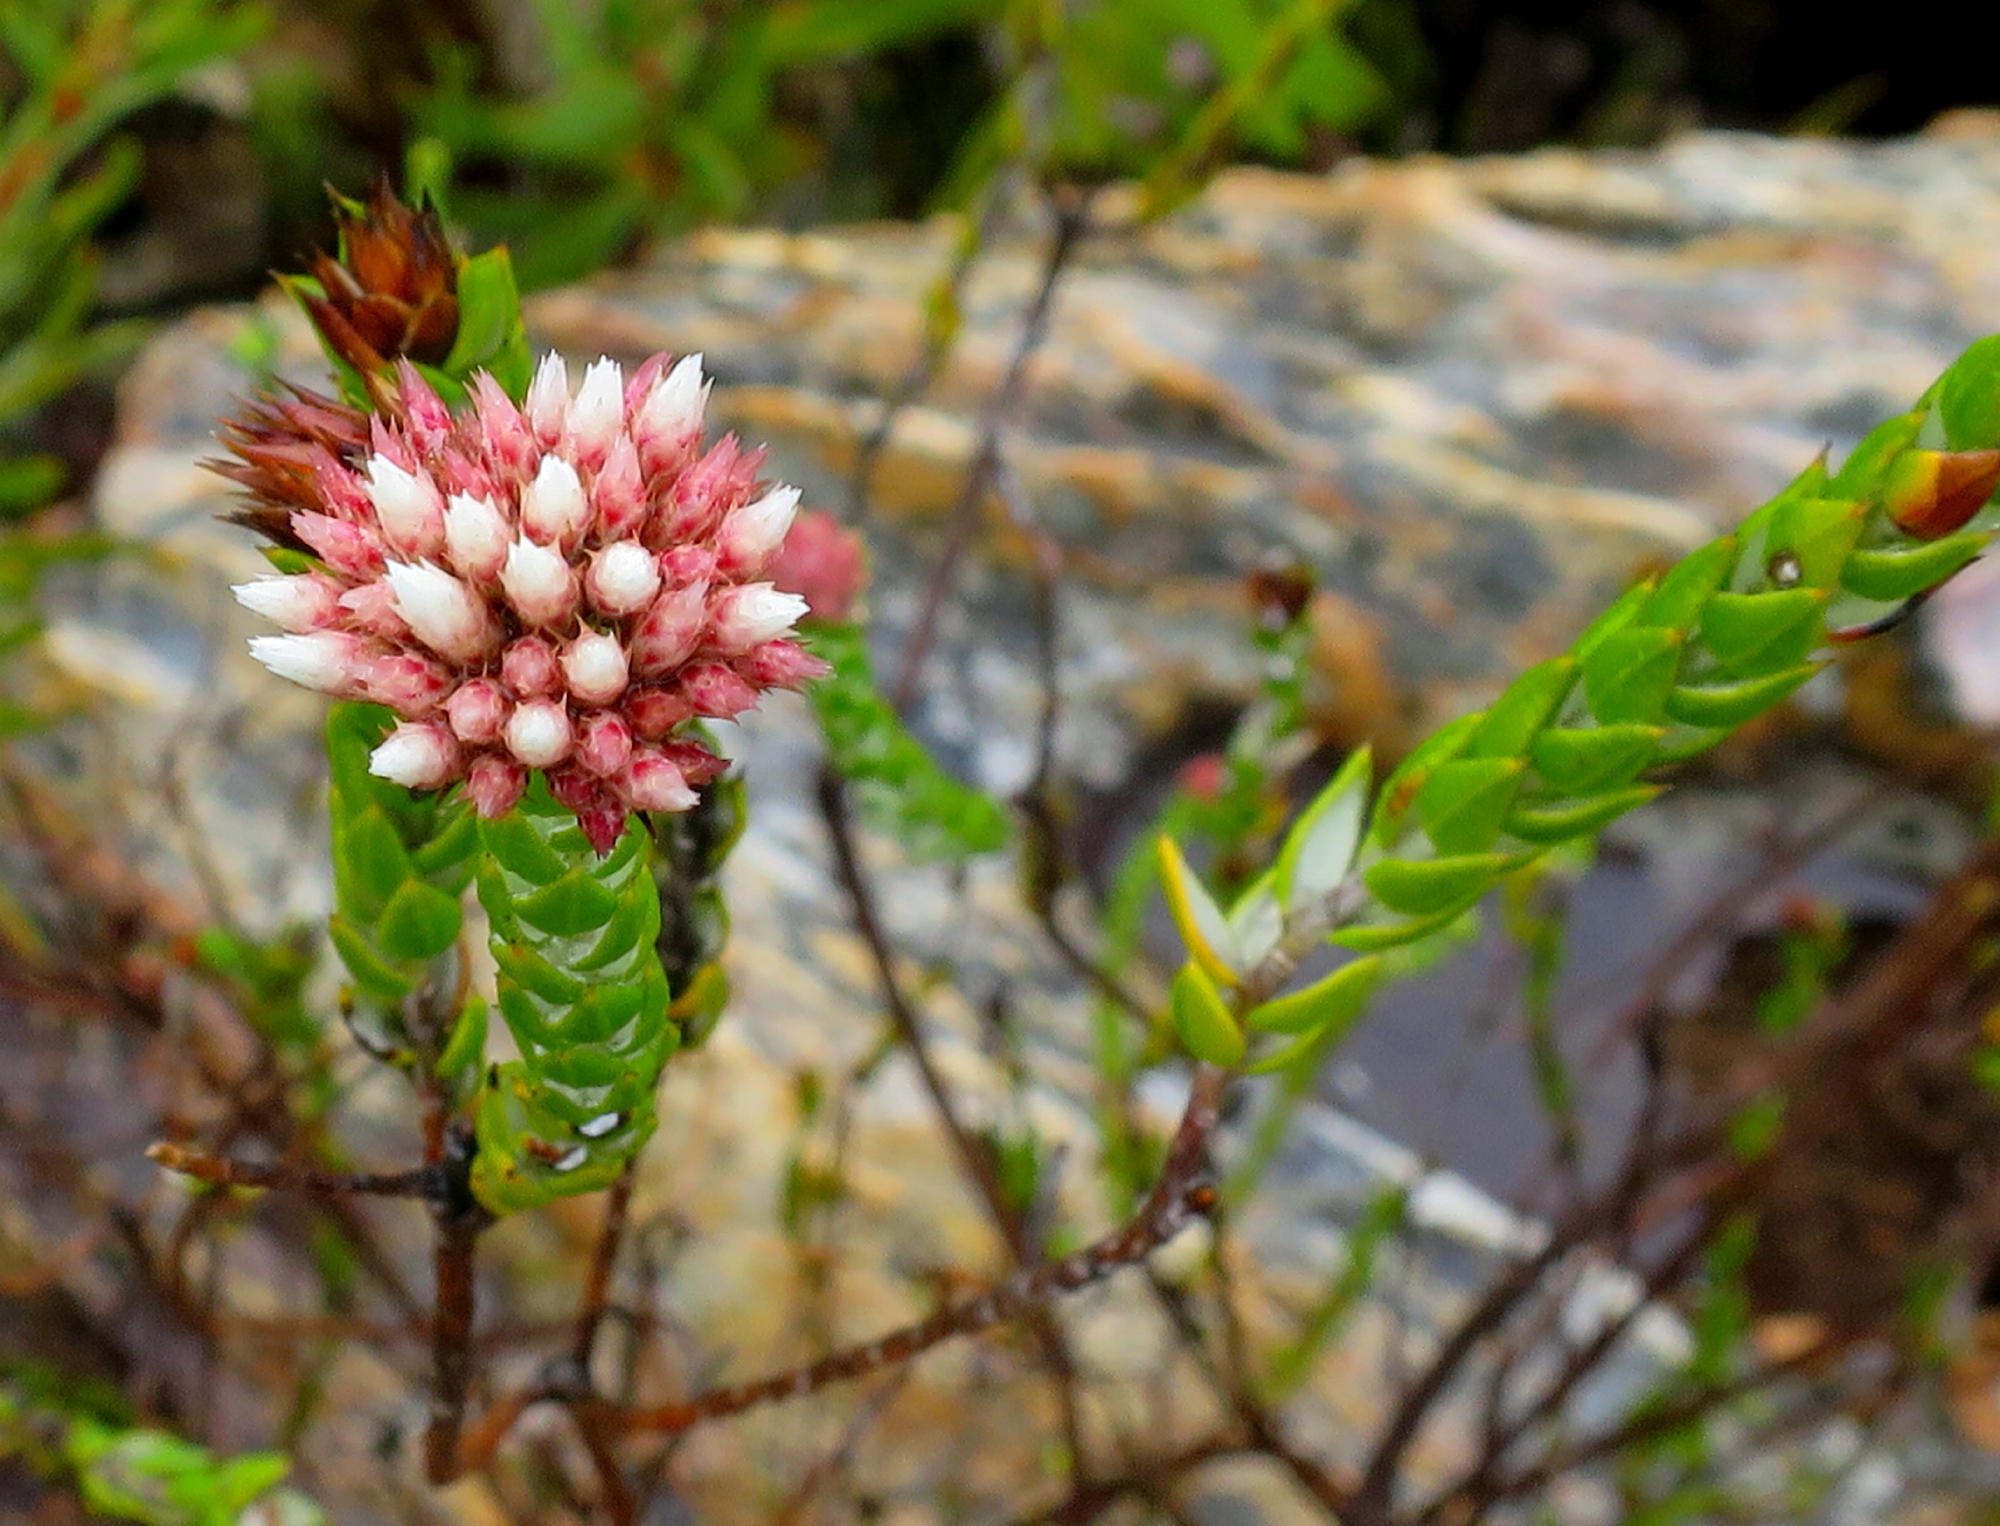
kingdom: Plantae
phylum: Tracheophyta
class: Magnoliopsida
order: Asterales
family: Asteraceae
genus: Metalasia
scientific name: Metalasia pulcherrima
